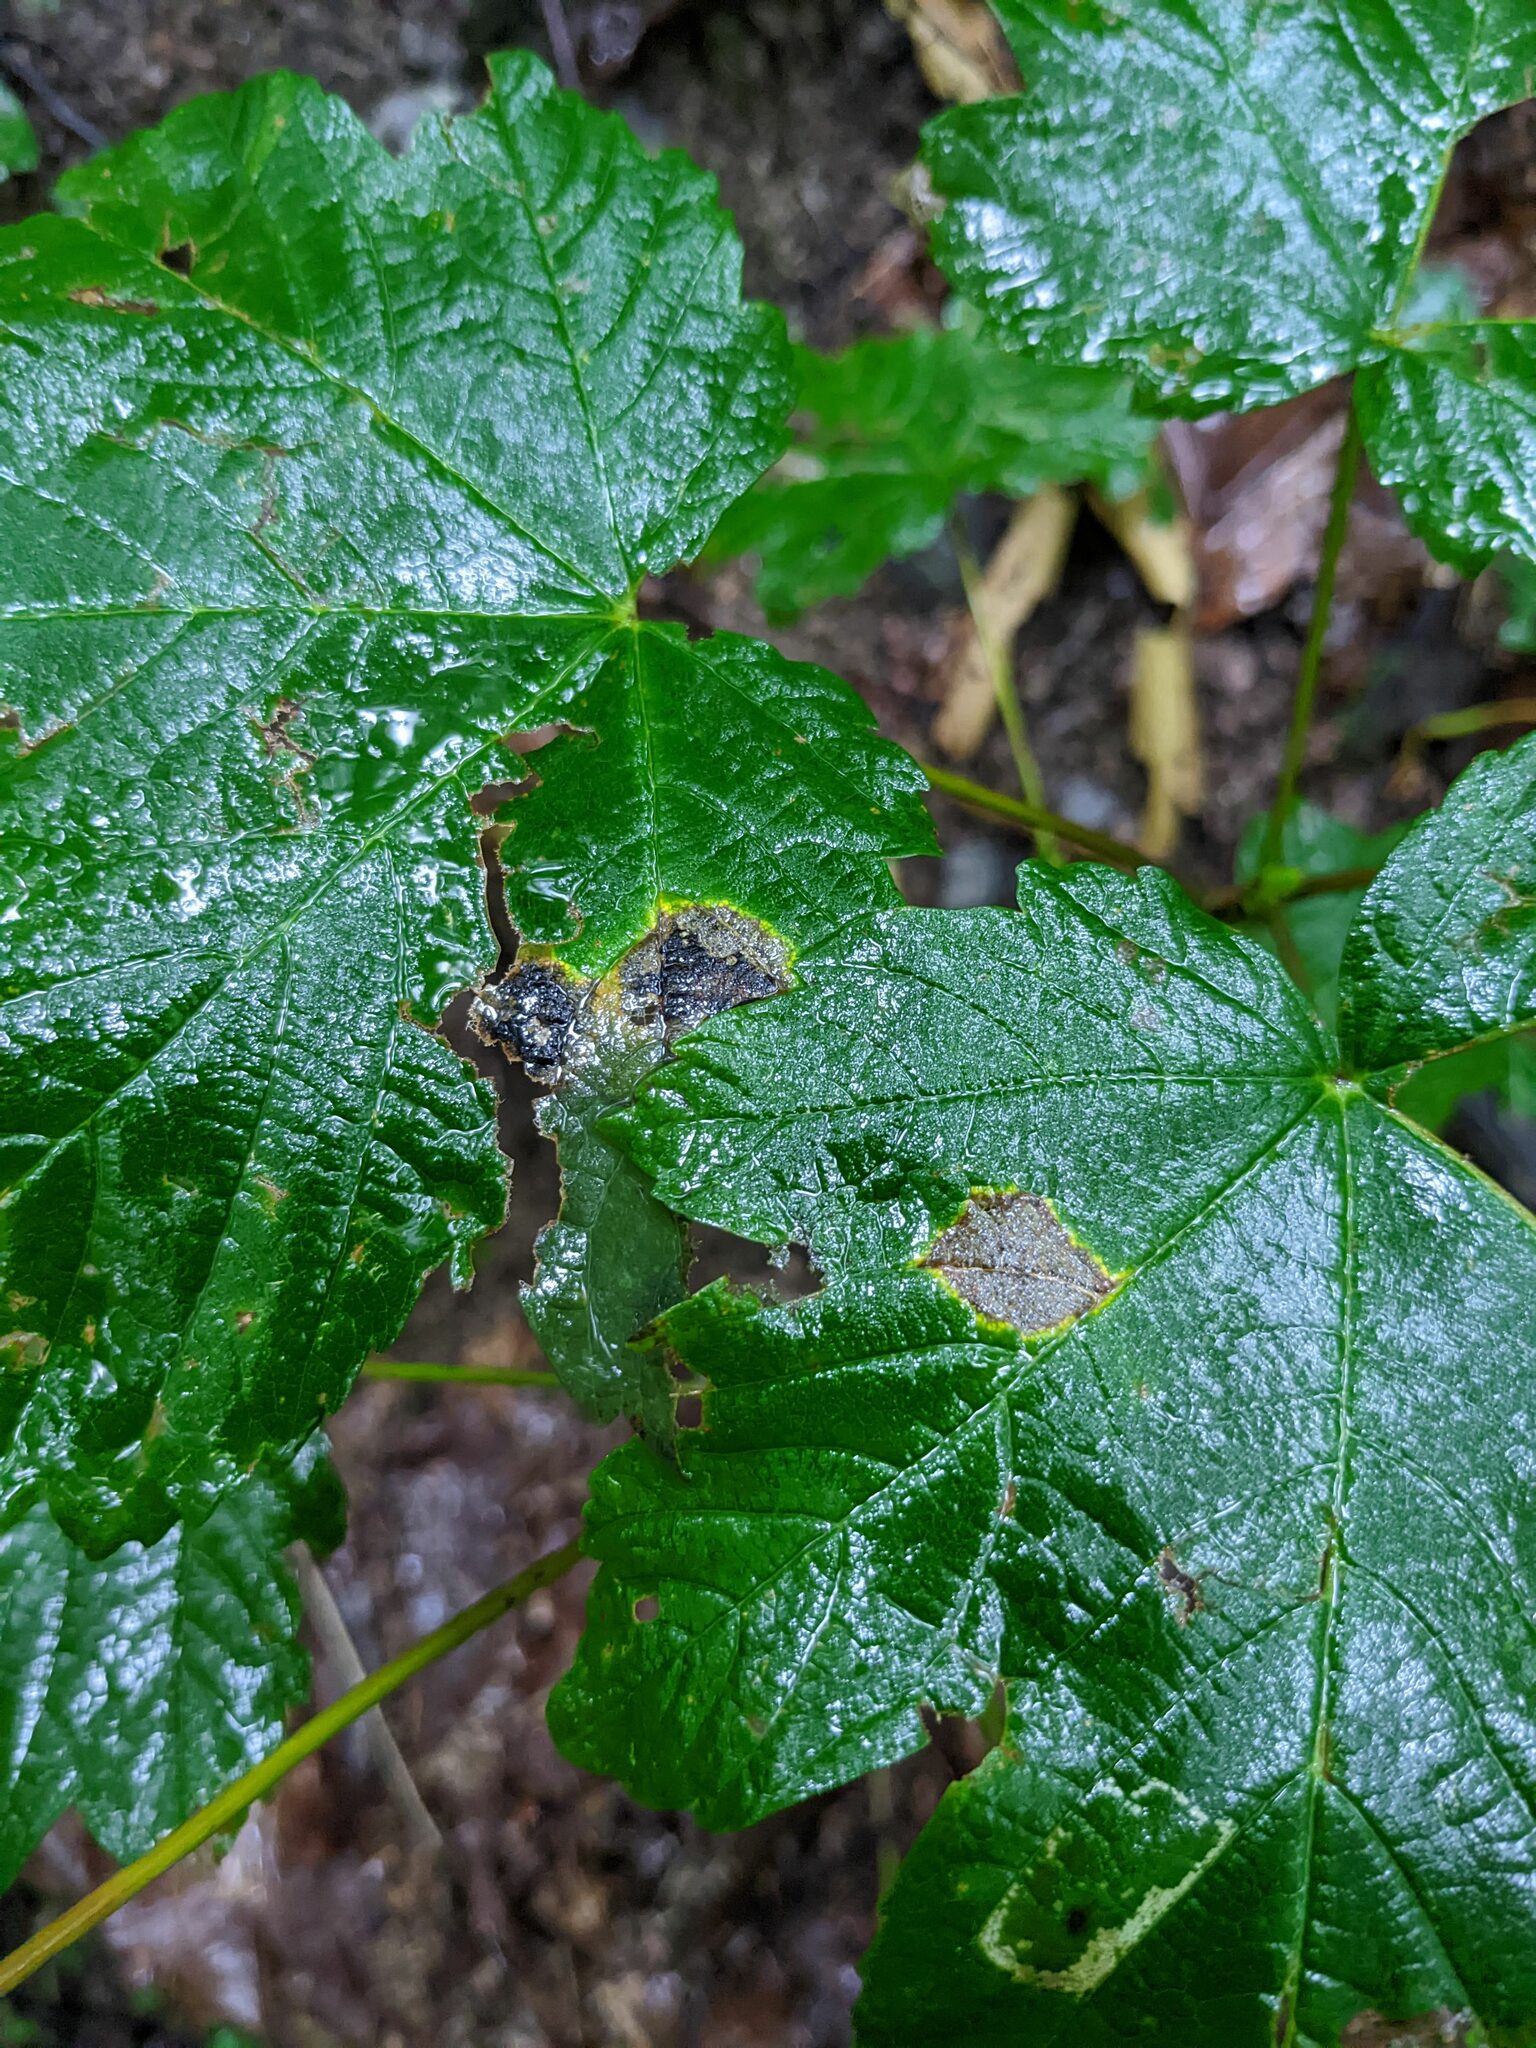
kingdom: Plantae
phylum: Tracheophyta
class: Magnoliopsida
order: Sapindales
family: Sapindaceae
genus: Acer
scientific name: Acer pseudoplatanus
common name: Sycamore
